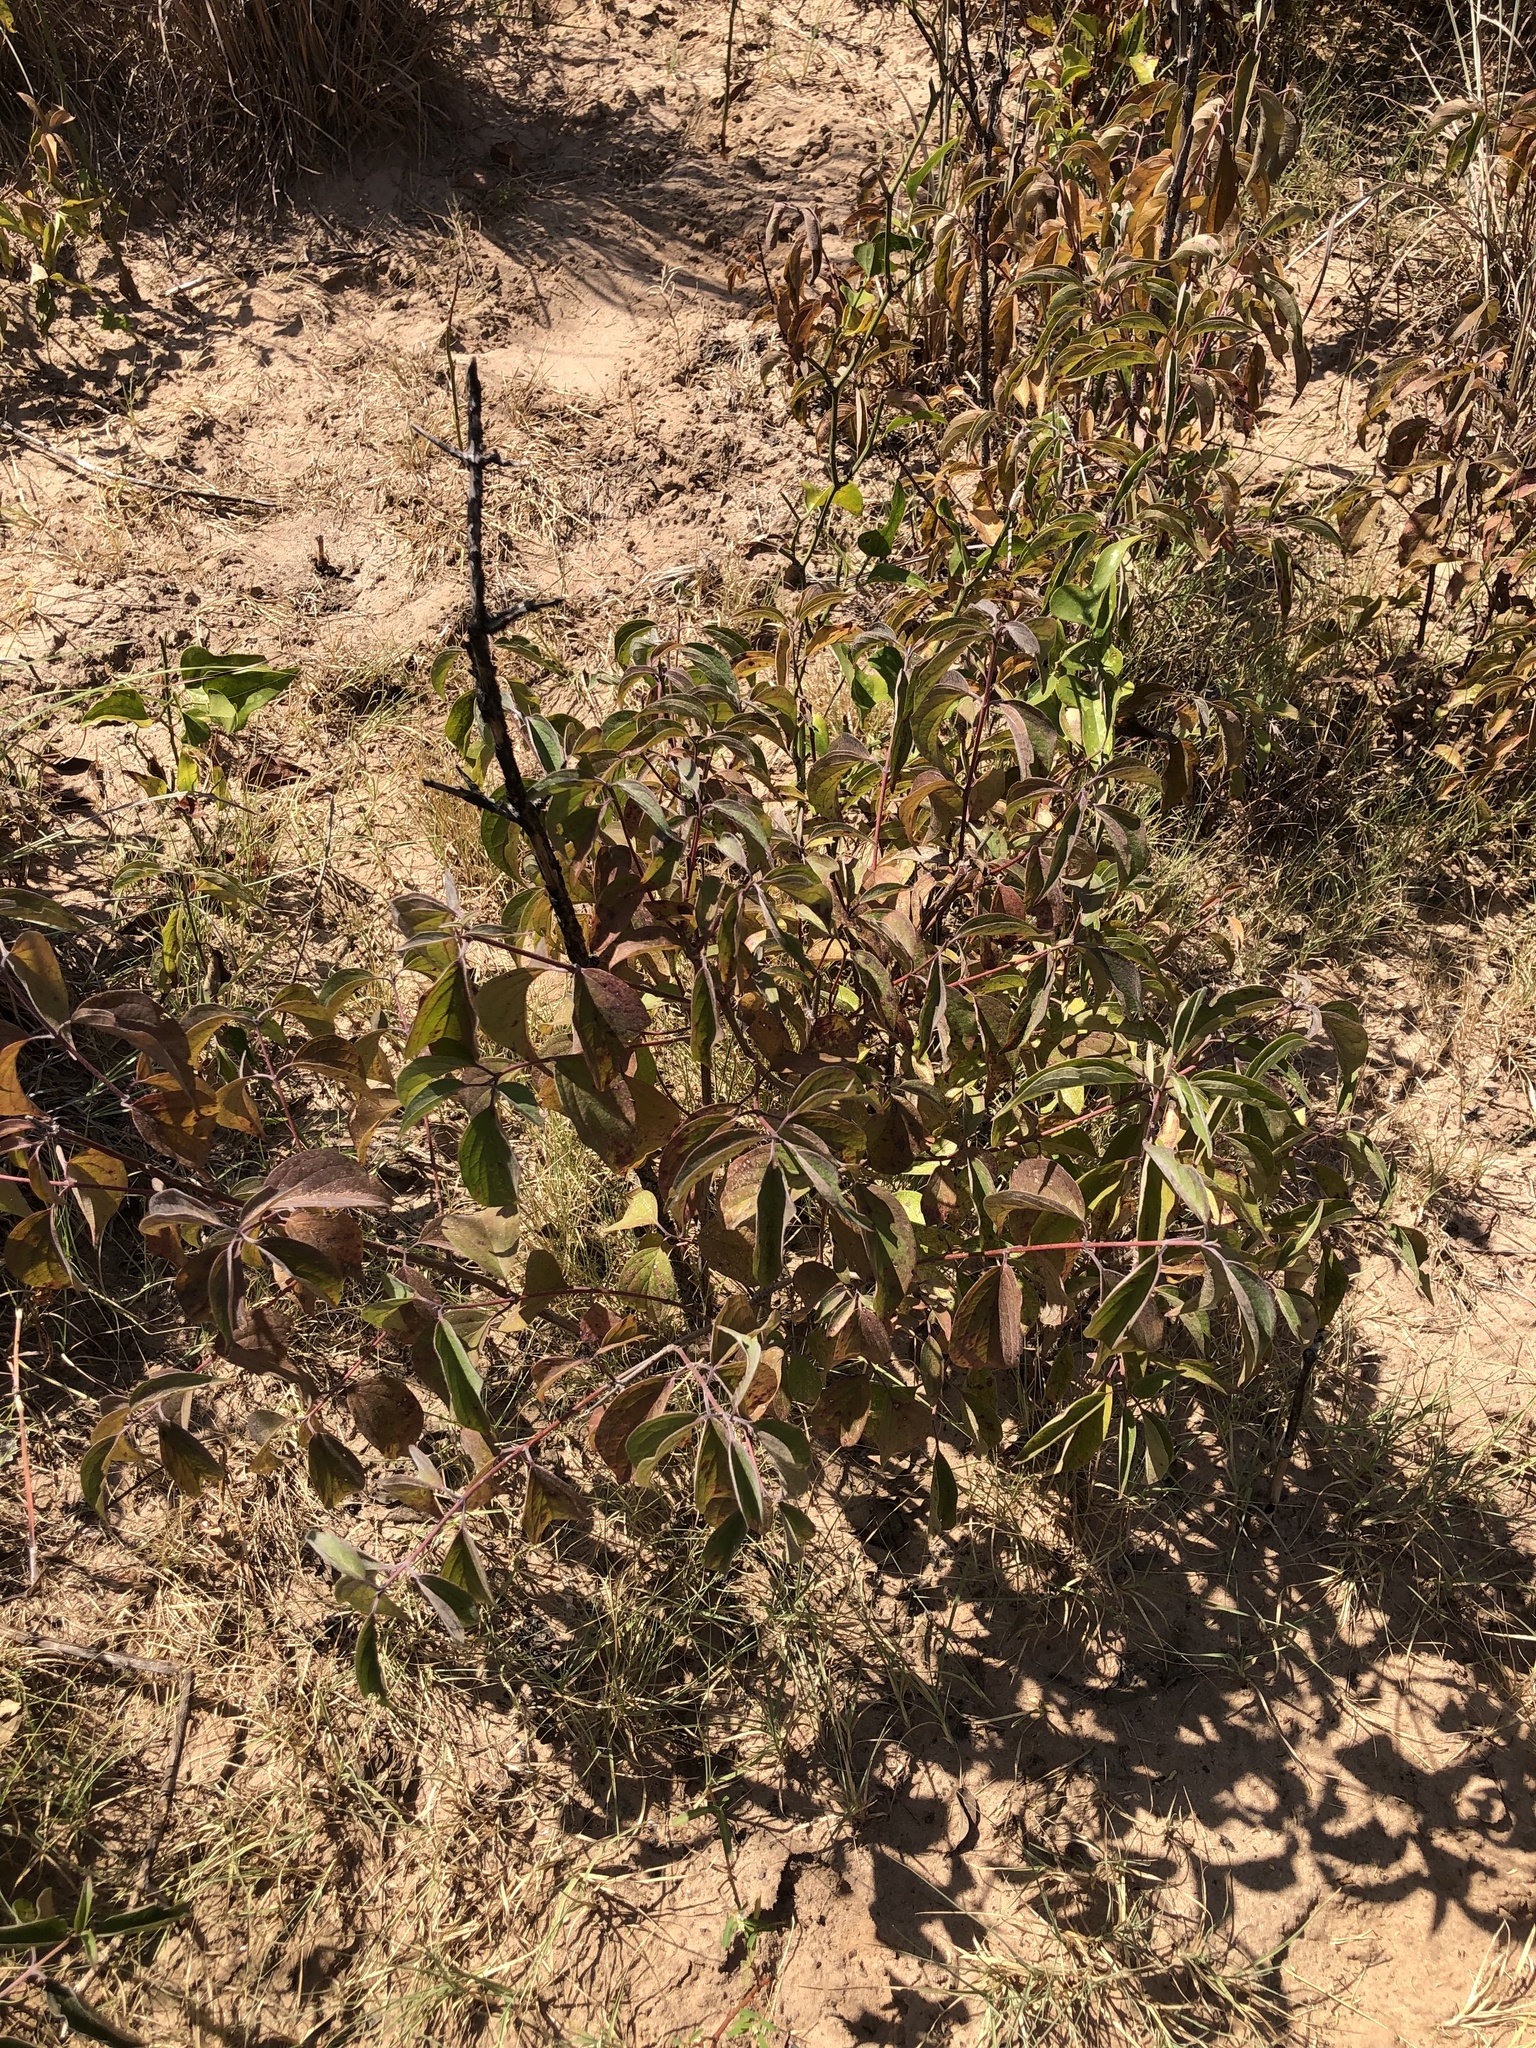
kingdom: Plantae
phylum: Tracheophyta
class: Magnoliopsida
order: Cornales
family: Cornaceae
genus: Cornus
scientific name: Cornus drummondii
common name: Rough-leaf dogwood
